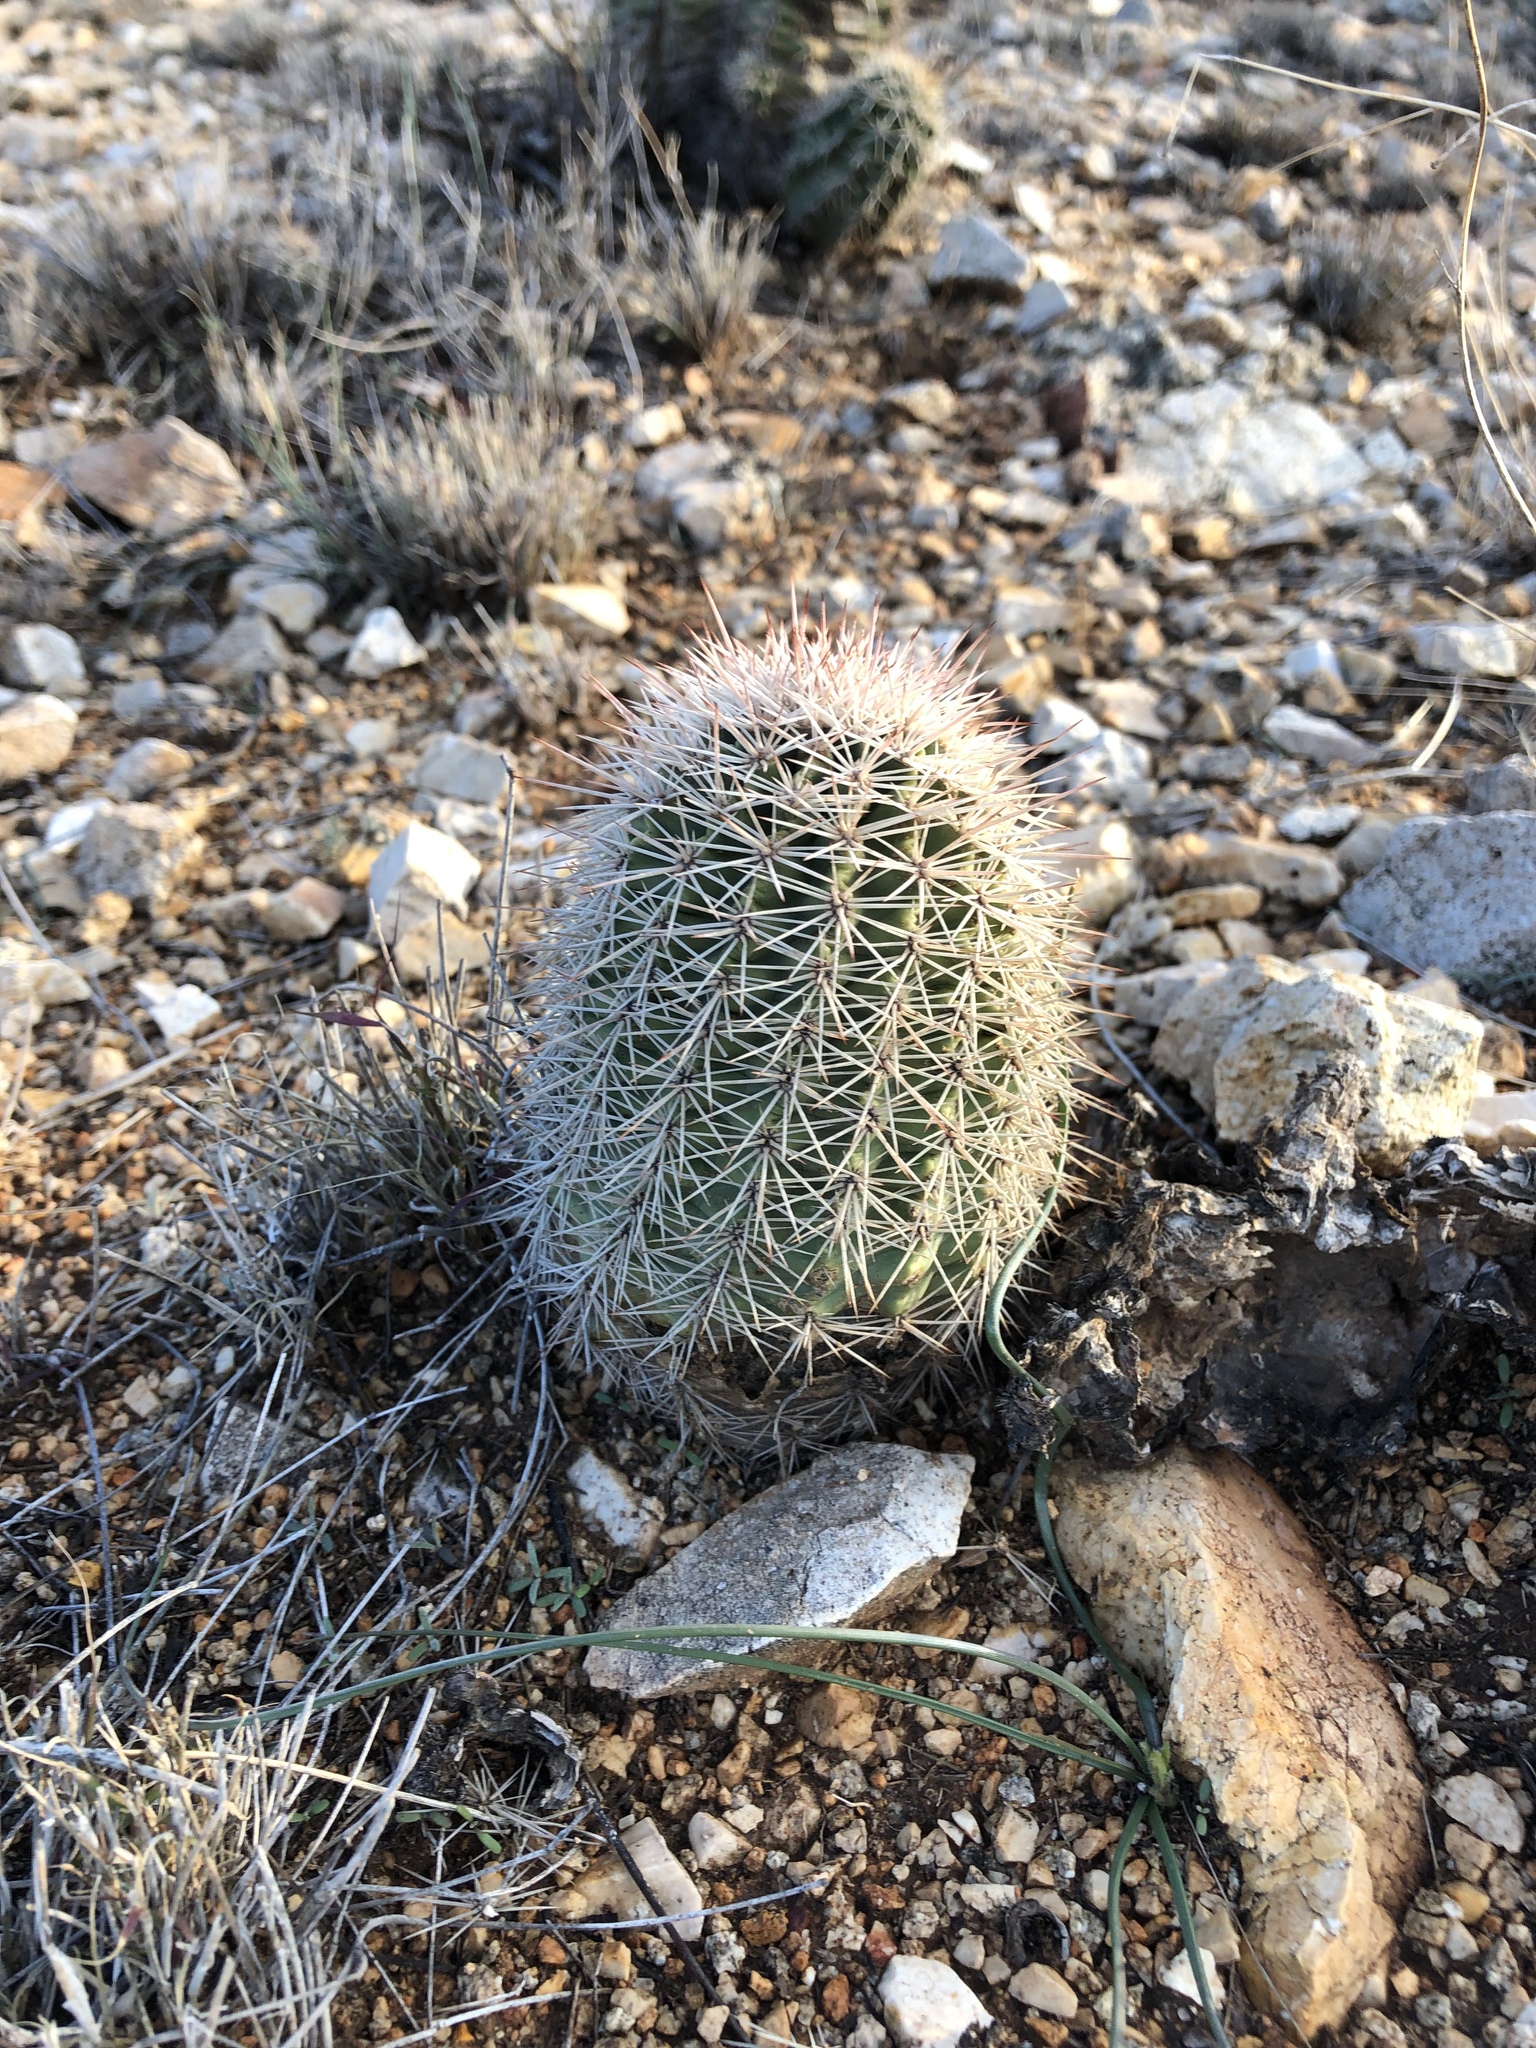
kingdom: Plantae
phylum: Tracheophyta
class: Magnoliopsida
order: Caryophyllales
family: Cactaceae
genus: Echinocereus
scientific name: Echinocereus dasyacanthus
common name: Spiny hedgehog cactus
